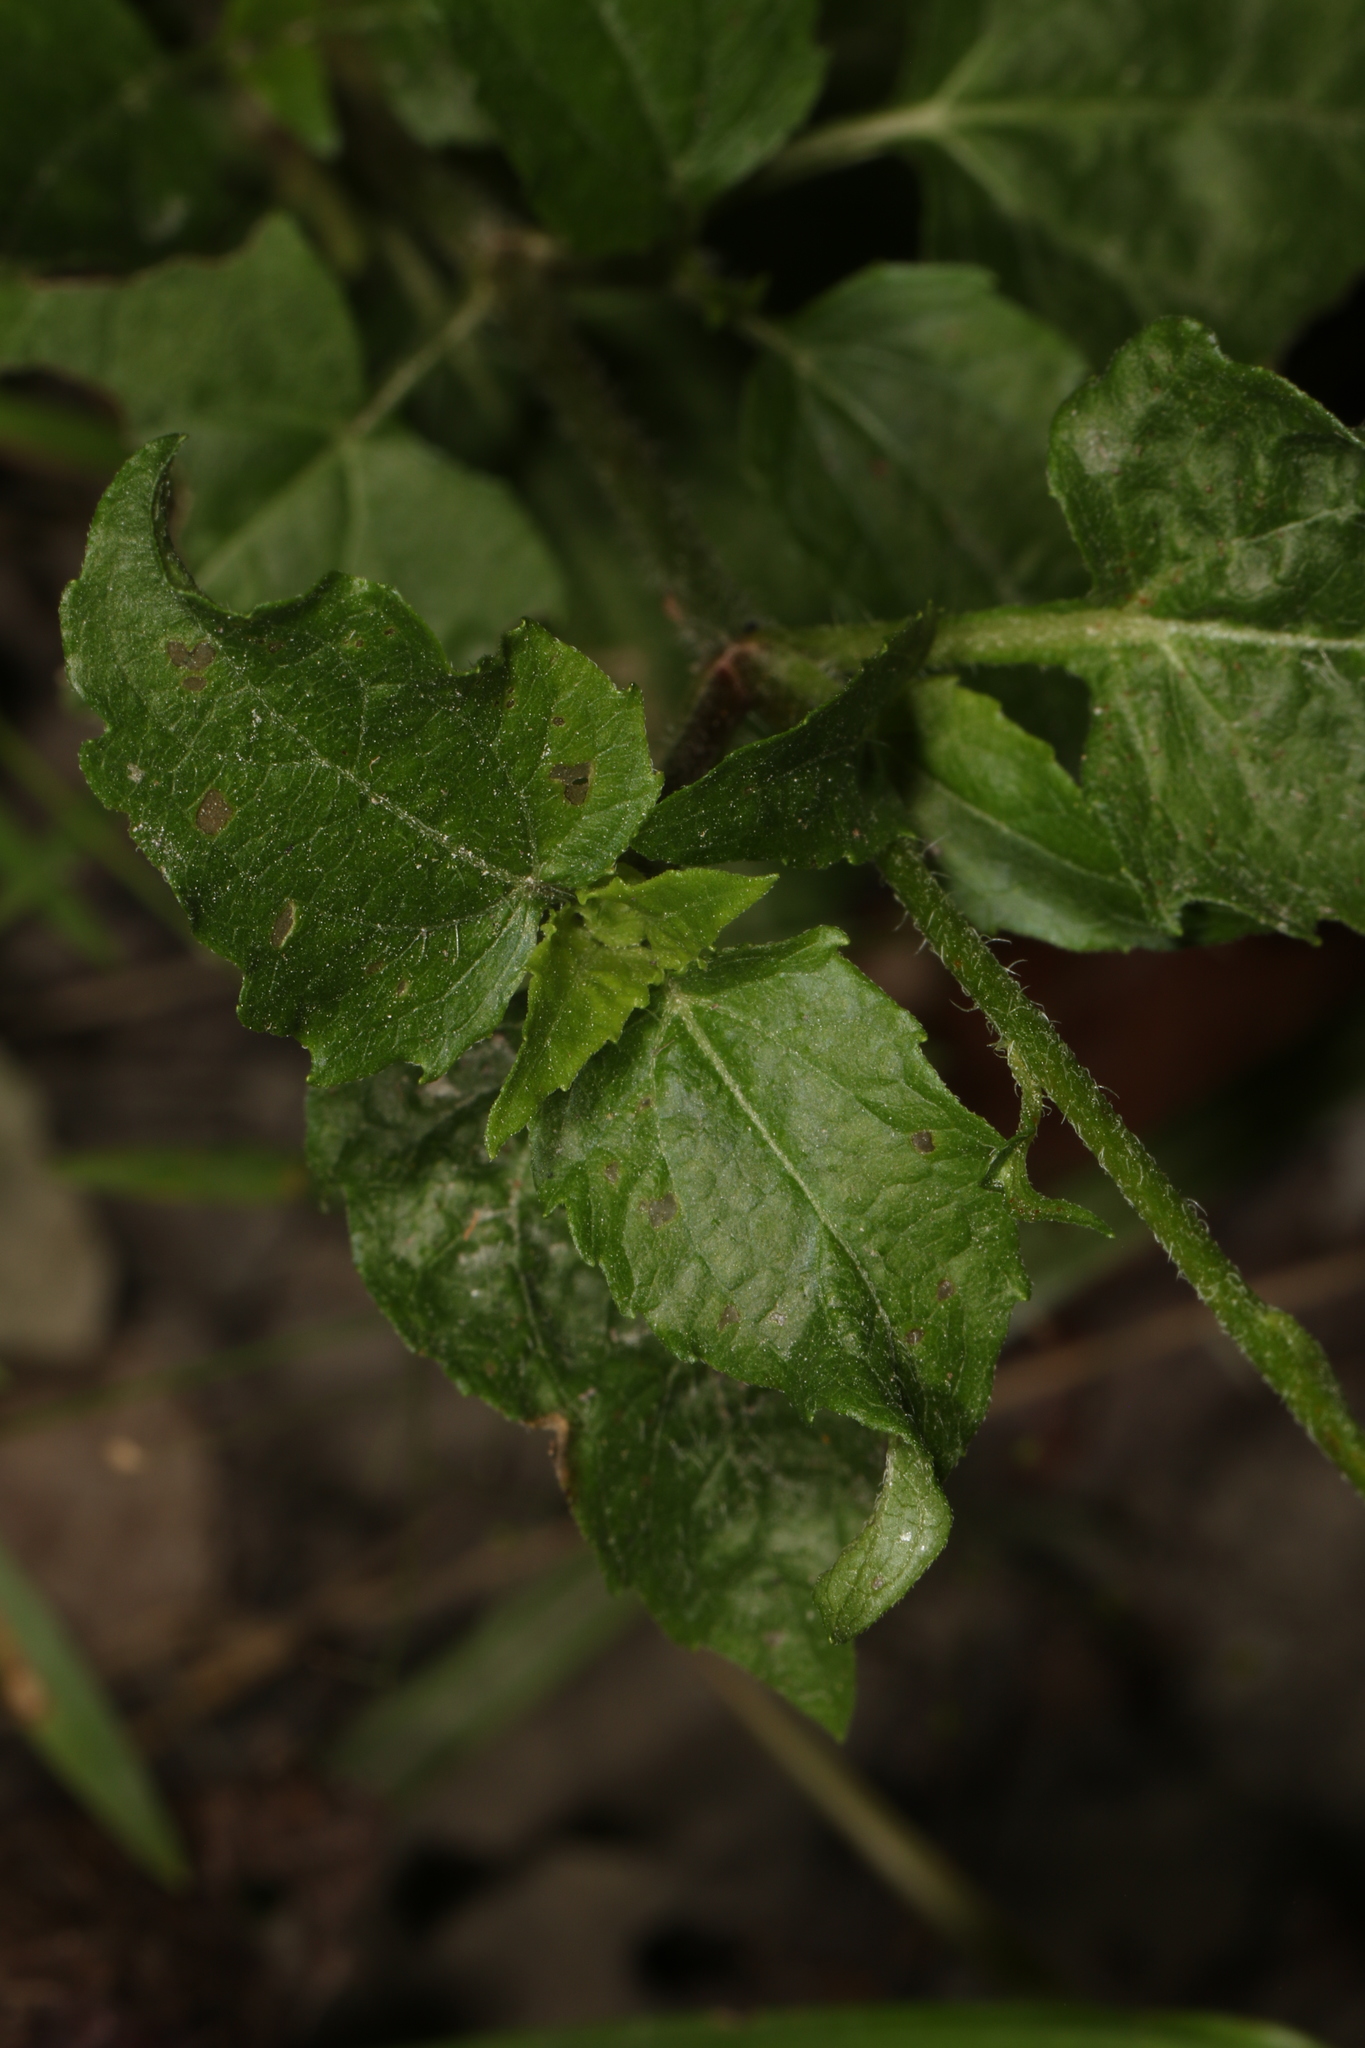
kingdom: Plantae
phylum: Tracheophyta
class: Magnoliopsida
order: Asterales
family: Asteraceae
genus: Acmella
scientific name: Acmella repens
